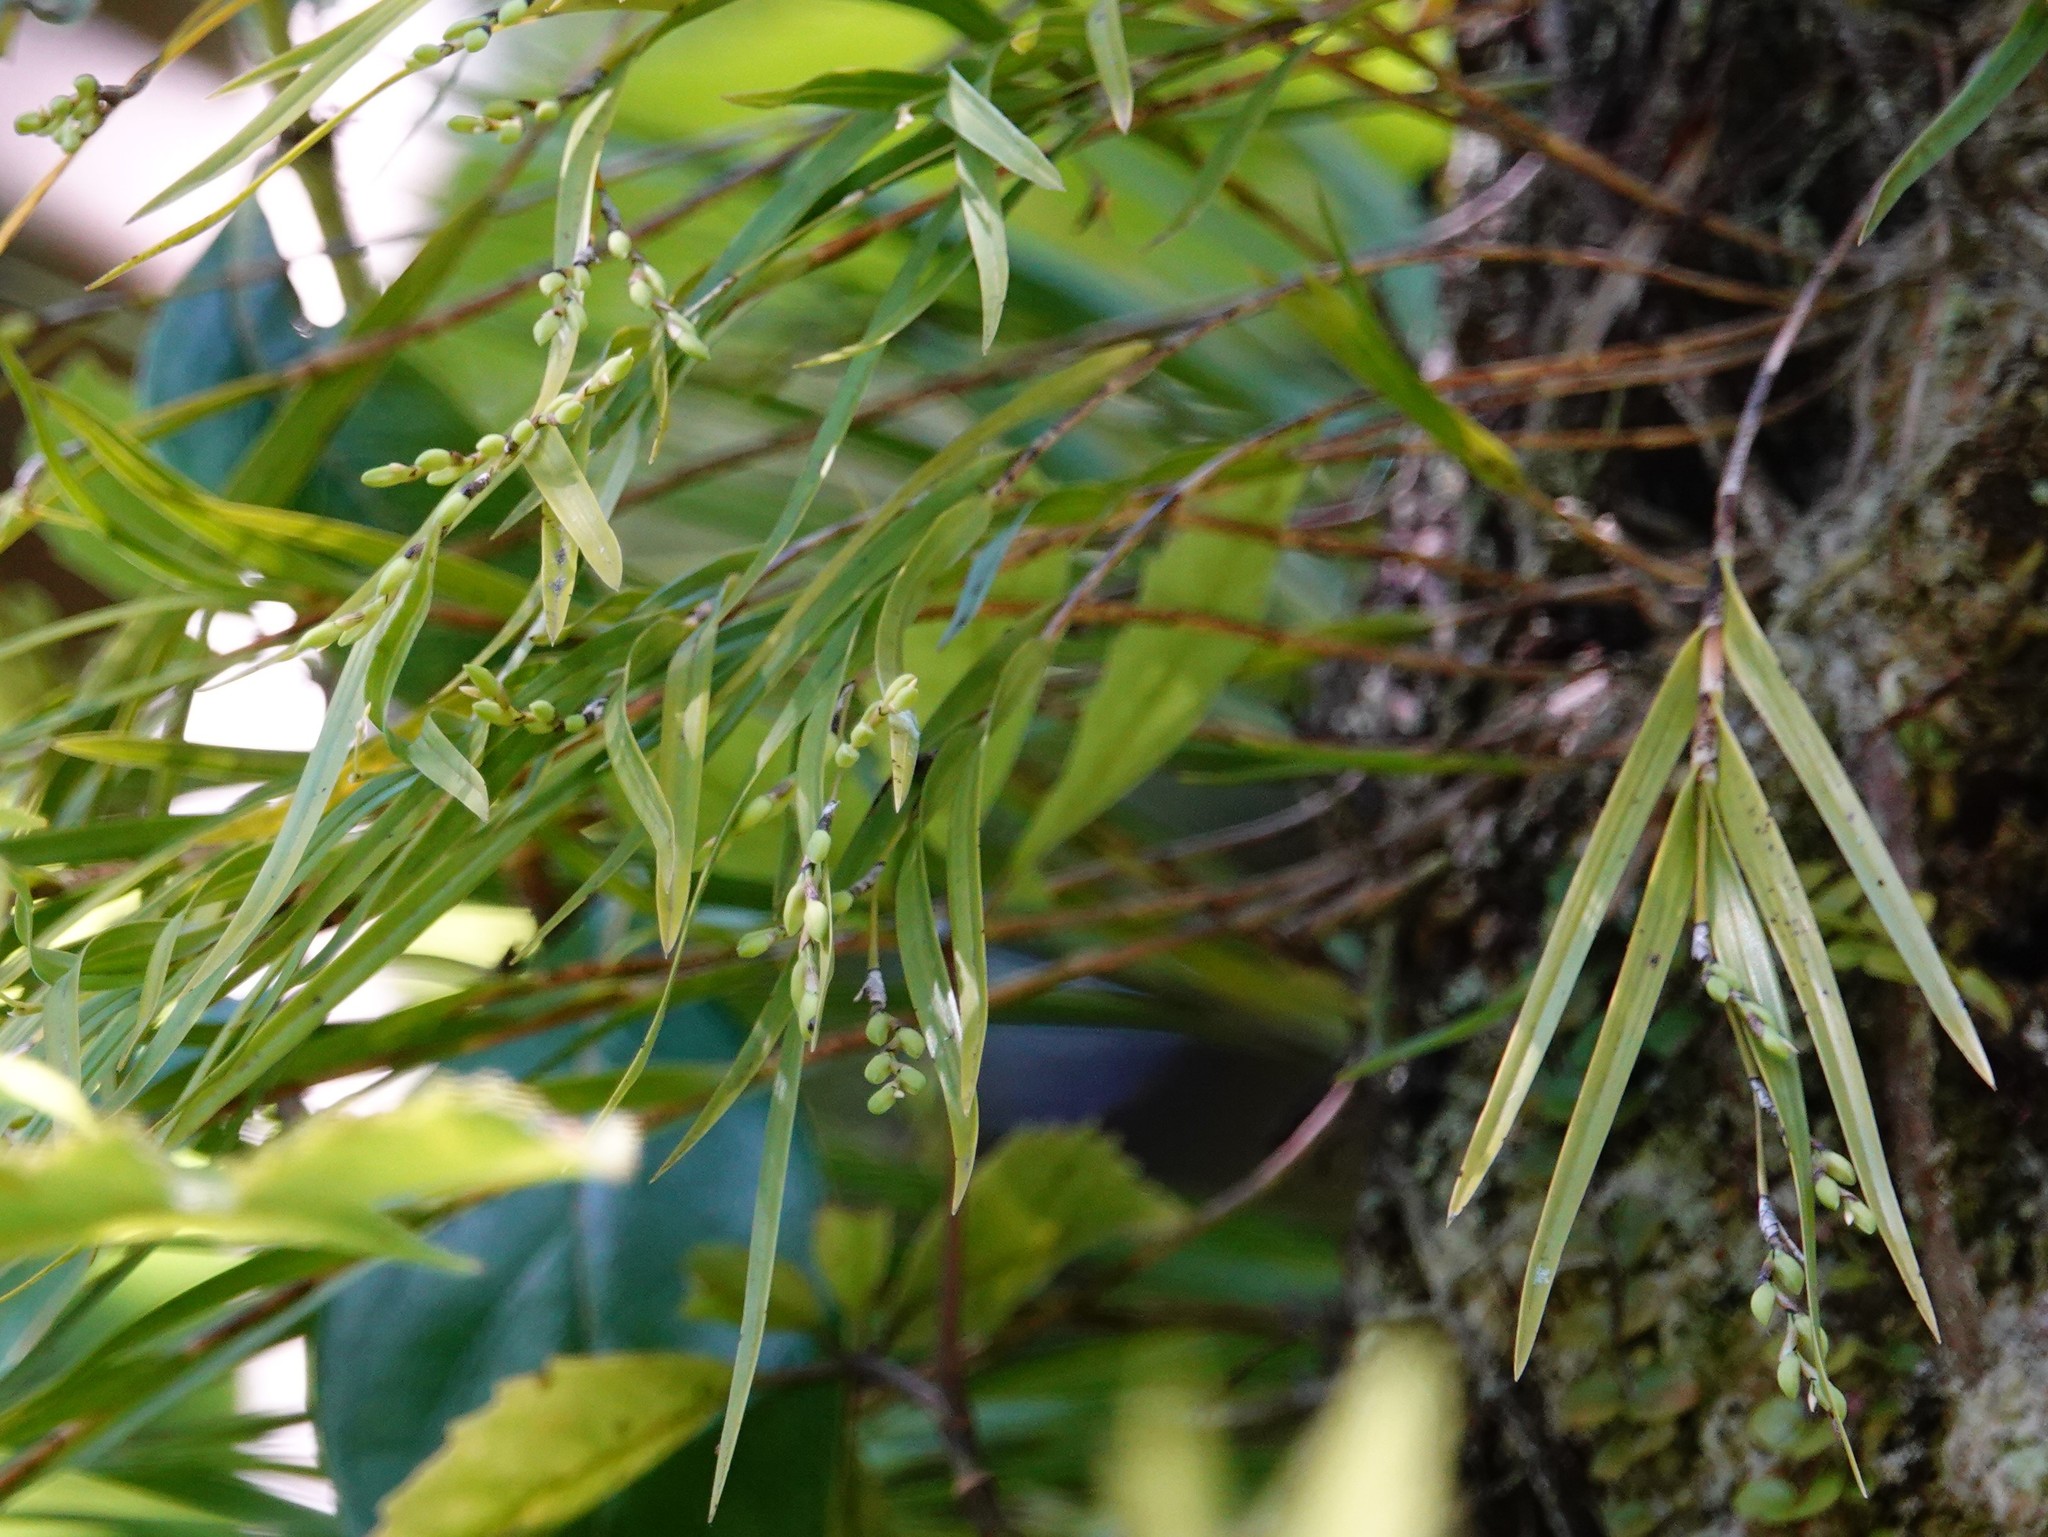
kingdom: Plantae
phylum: Tracheophyta
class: Liliopsida
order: Asparagales
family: Orchidaceae
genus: Earina
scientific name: Earina mucronata
